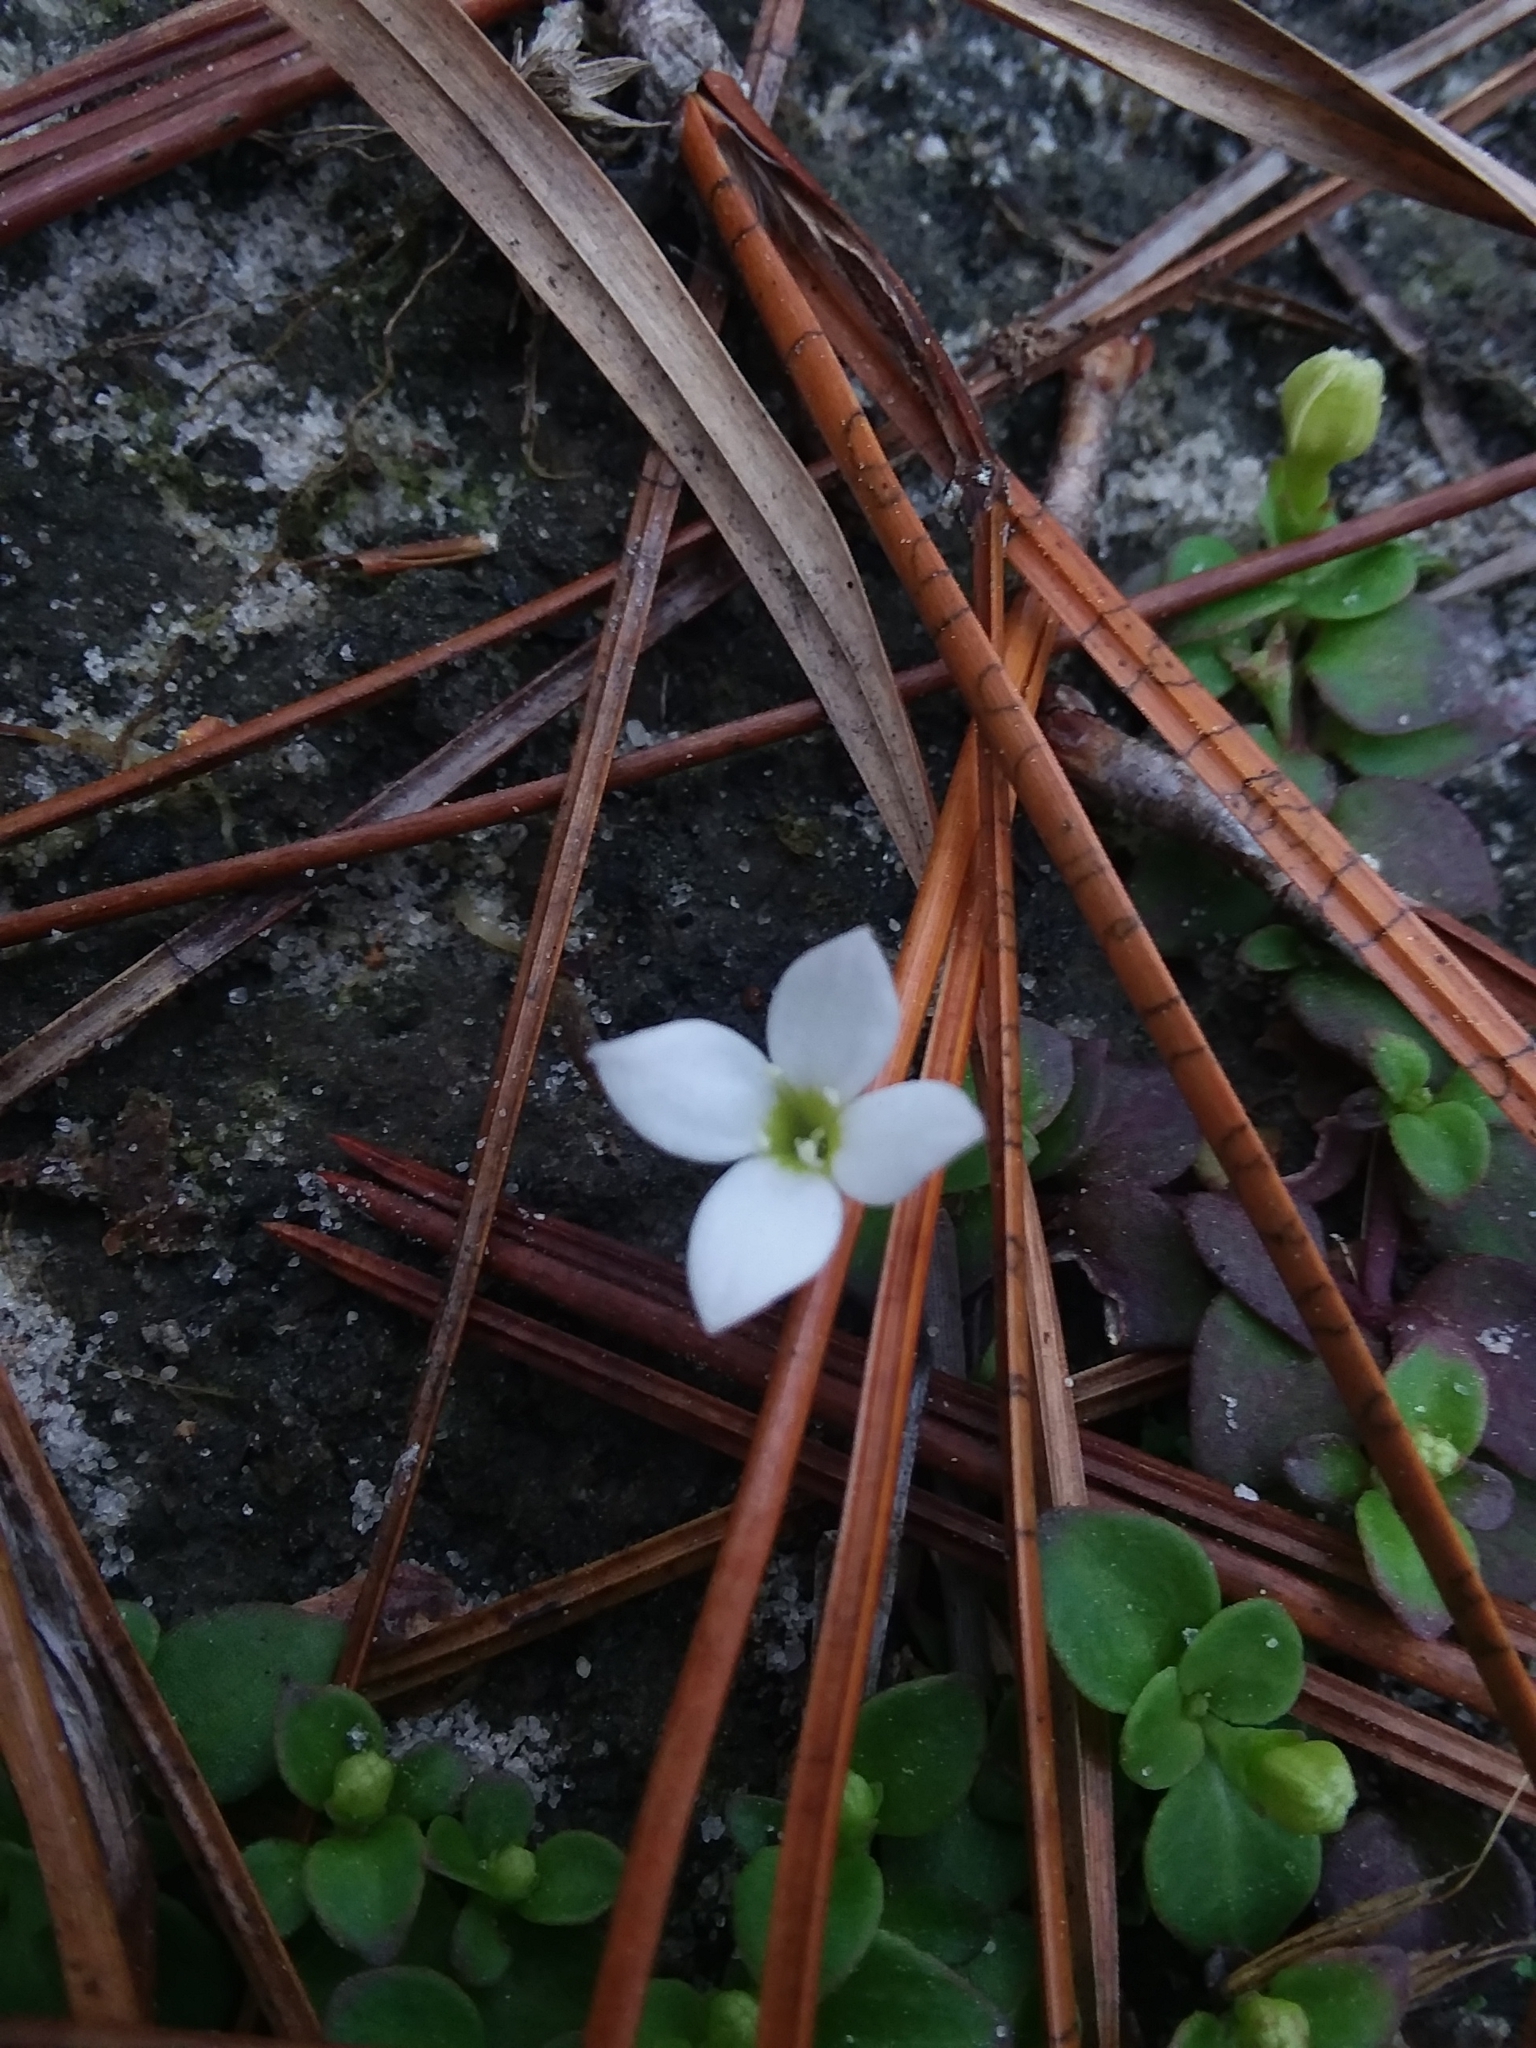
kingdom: Plantae
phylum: Tracheophyta
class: Magnoliopsida
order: Gentianales
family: Rubiaceae
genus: Houstonia
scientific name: Houstonia procumbens
